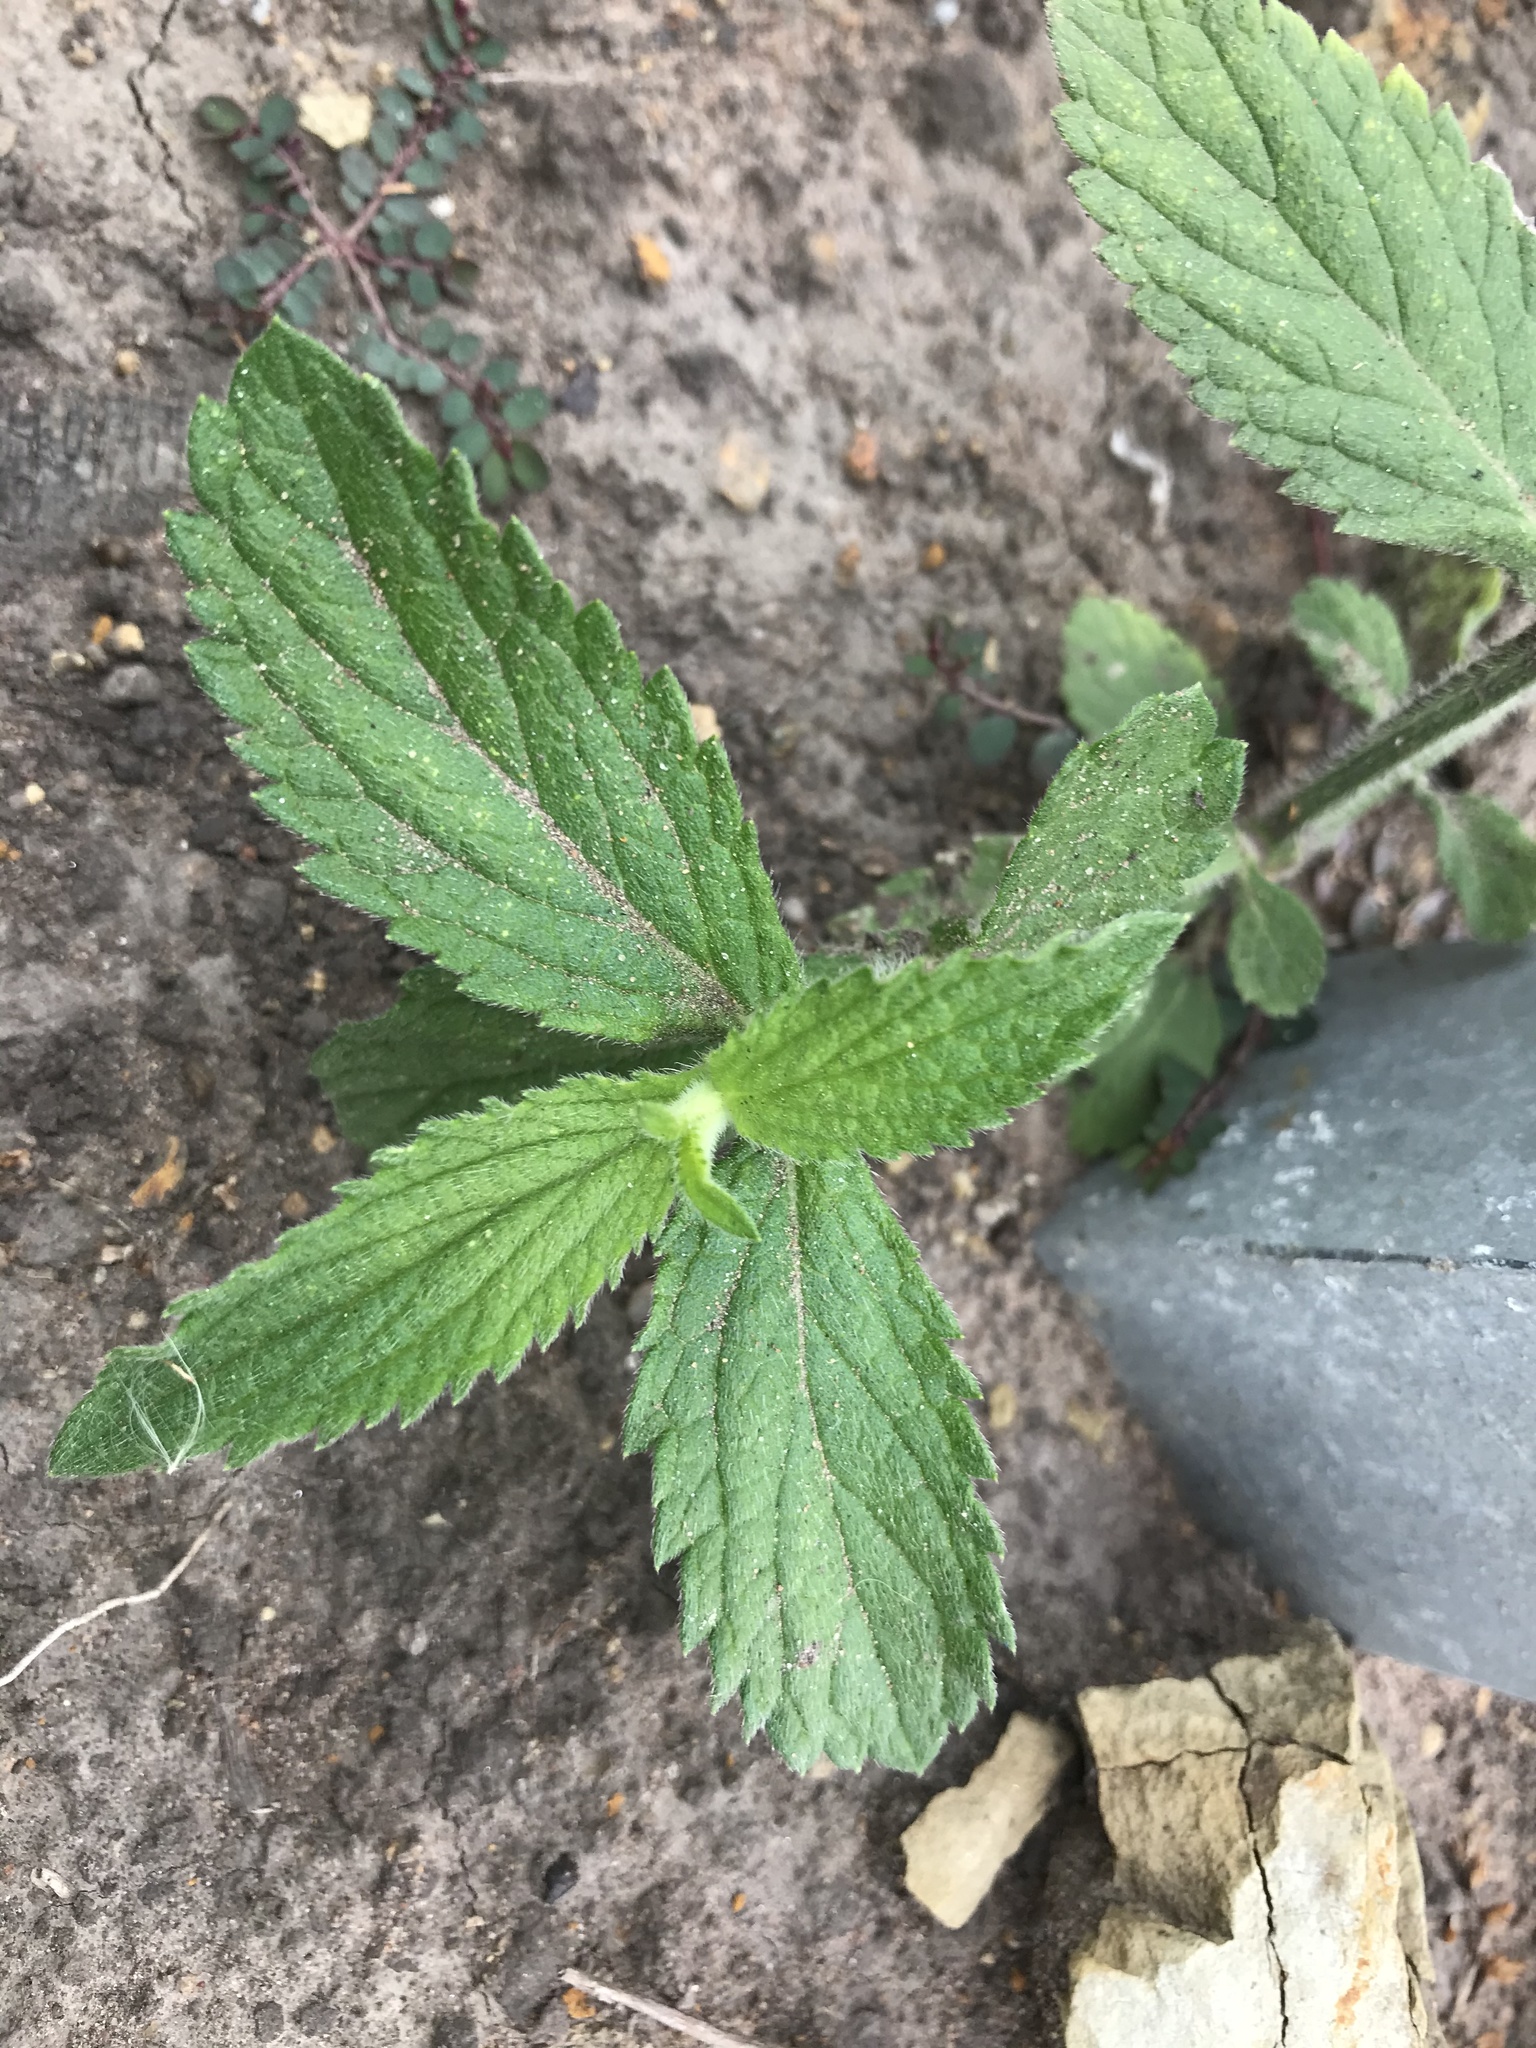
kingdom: Plantae
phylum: Tracheophyta
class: Magnoliopsida
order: Lamiales
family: Verbenaceae
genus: Verbena
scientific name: Verbena bonariensis
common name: Purpletop vervain
